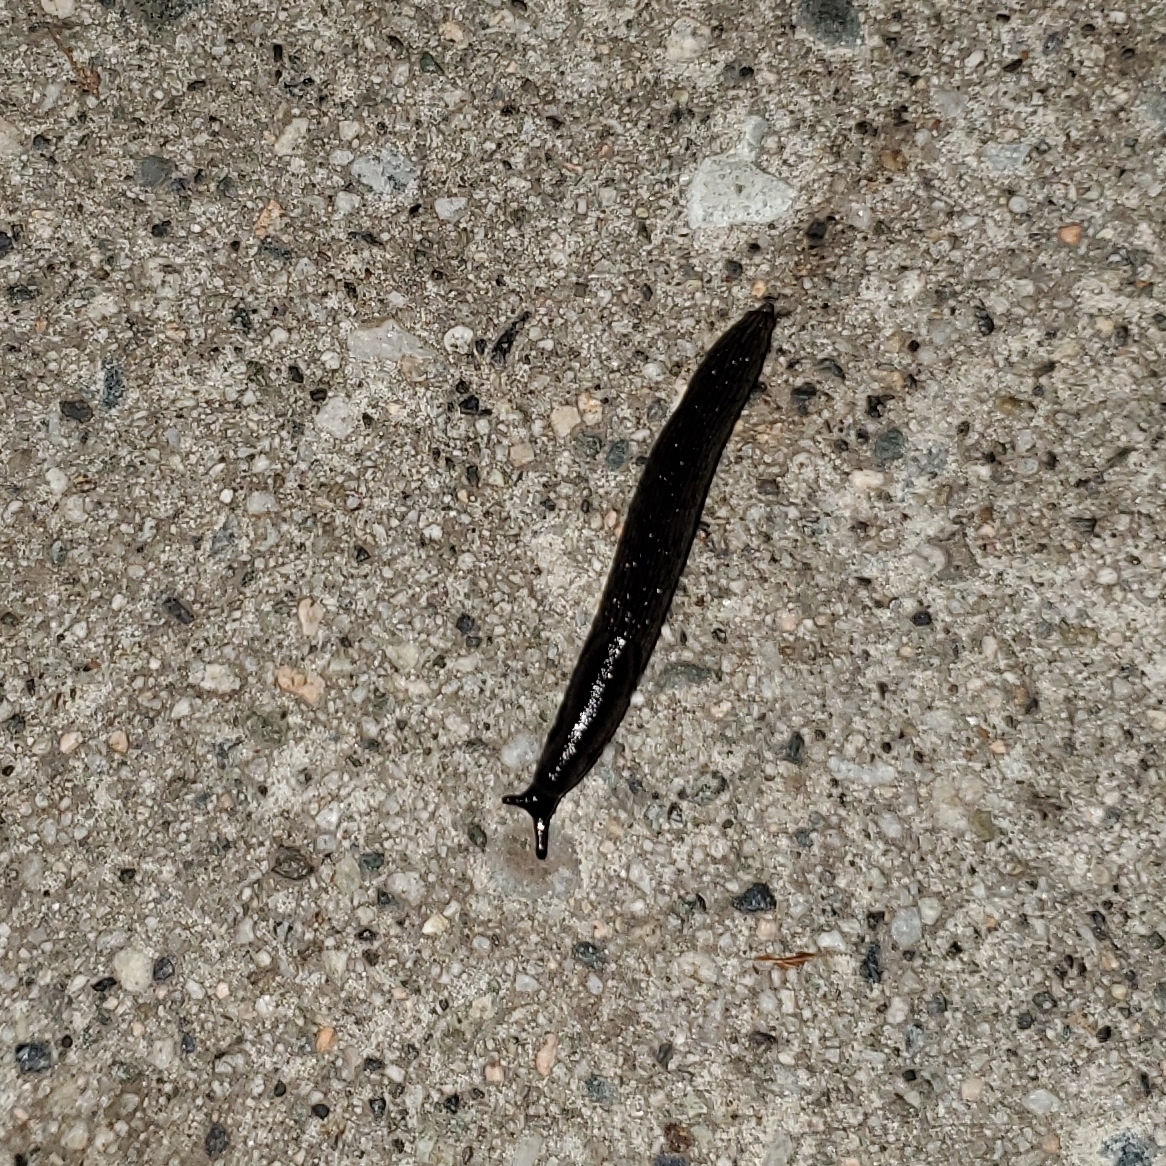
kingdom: Animalia
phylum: Mollusca
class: Gastropoda
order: Stylommatophora
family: Arionidae
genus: Arion
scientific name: Arion
